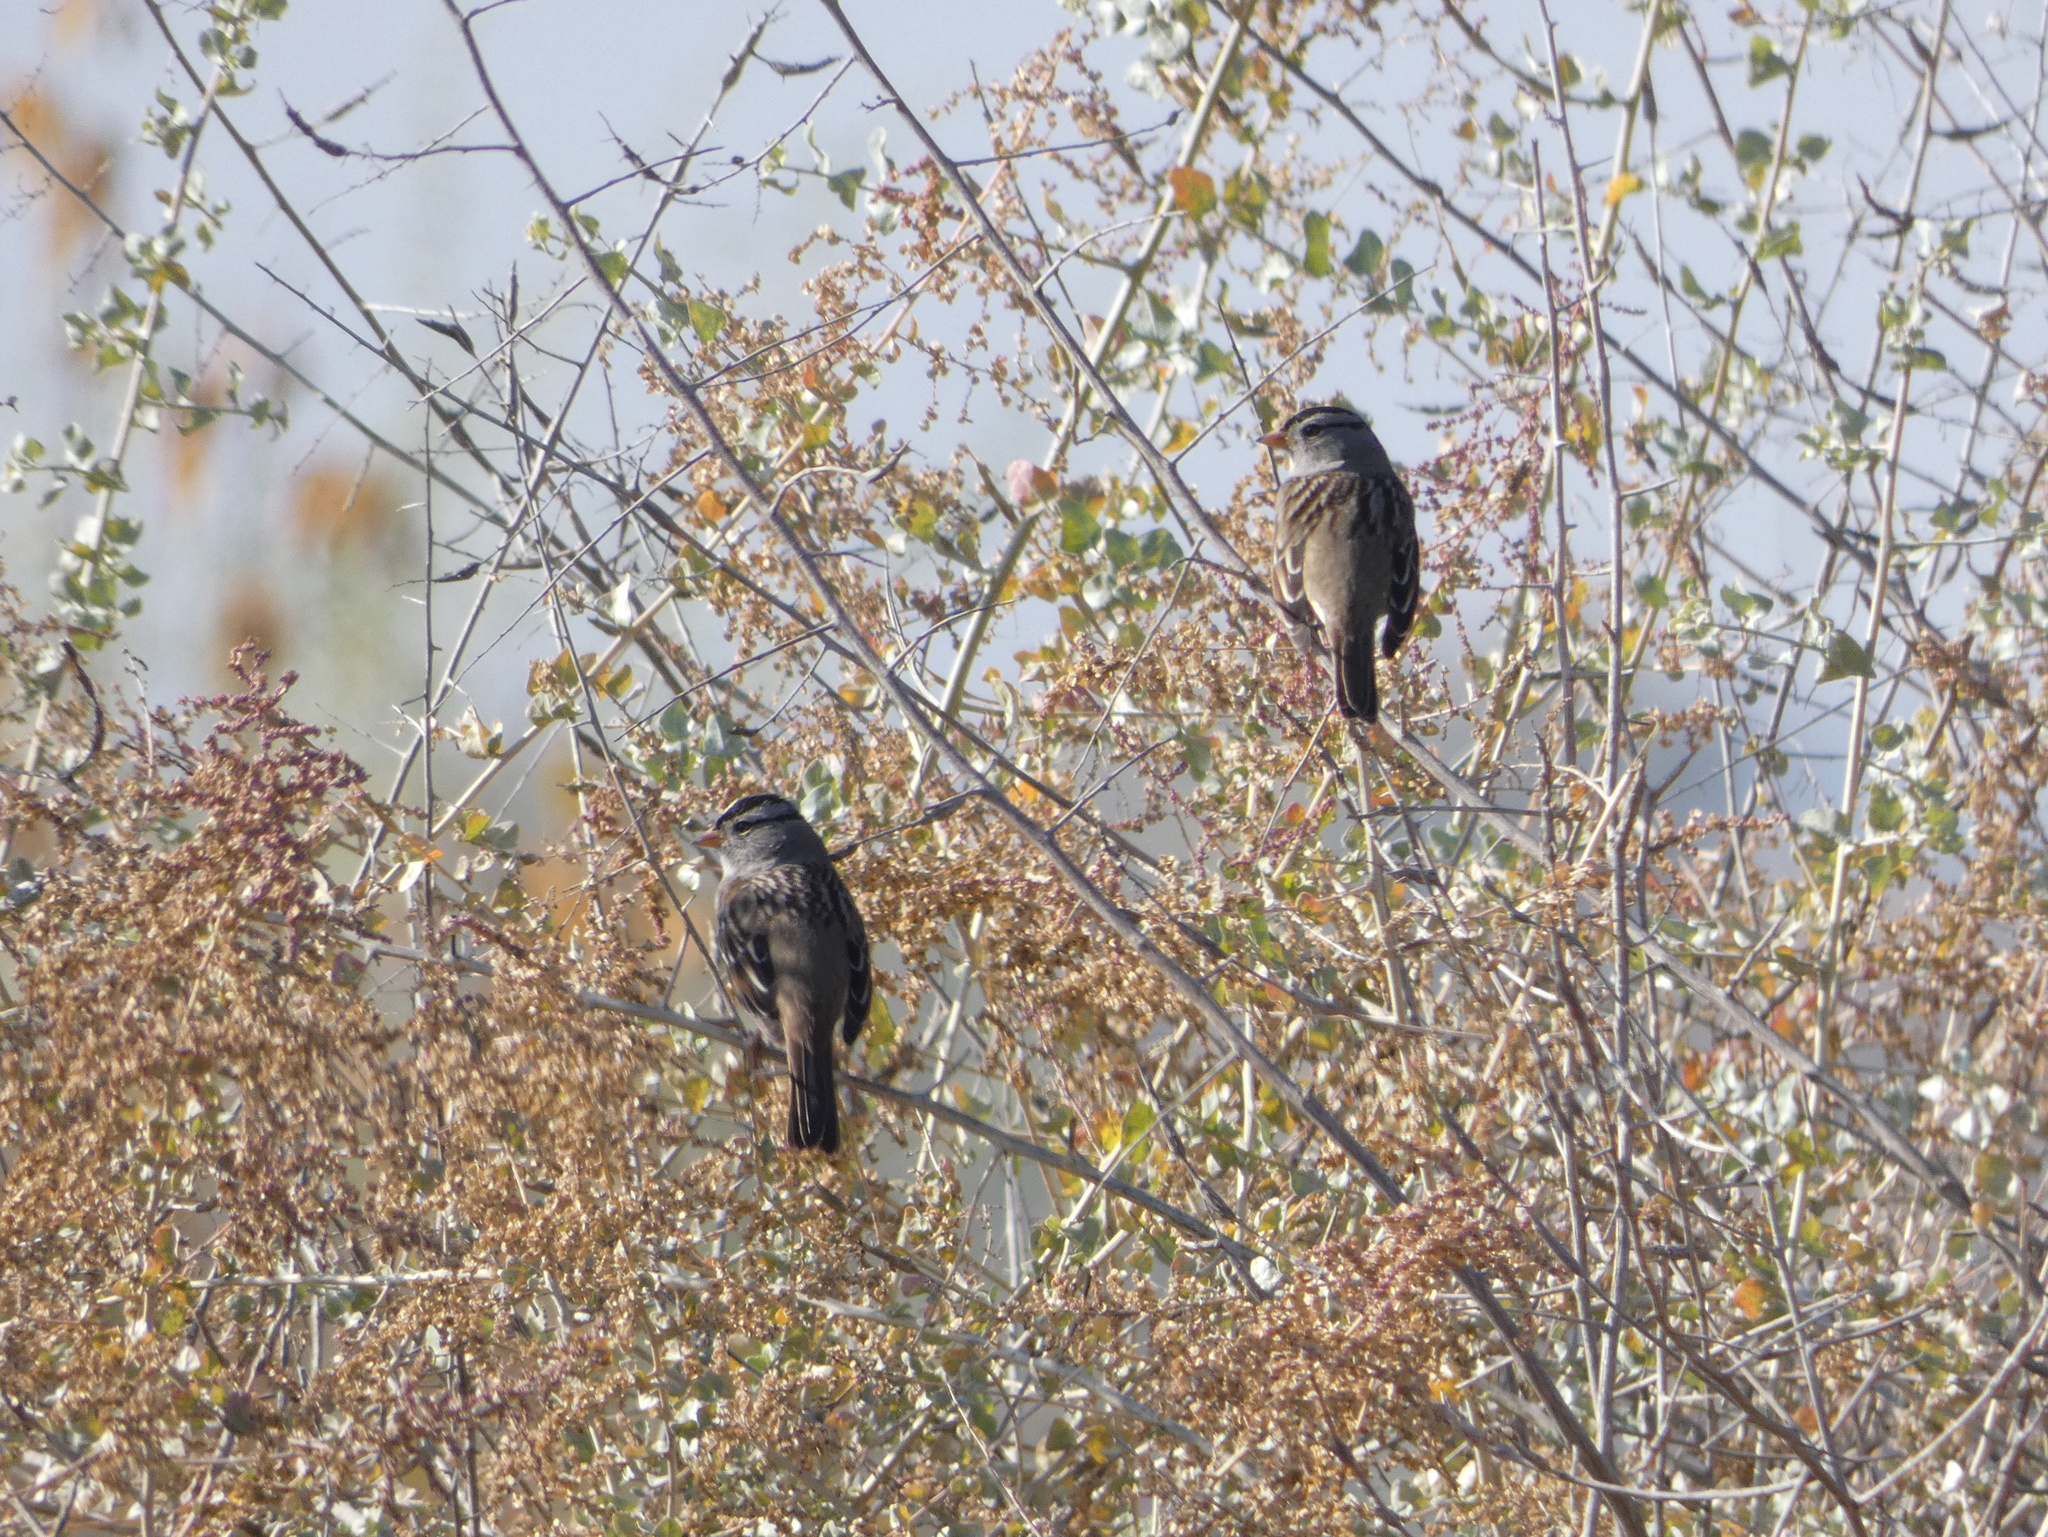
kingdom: Animalia
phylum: Chordata
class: Aves
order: Passeriformes
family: Passerellidae
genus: Zonotrichia
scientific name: Zonotrichia leucophrys
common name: White-crowned sparrow
